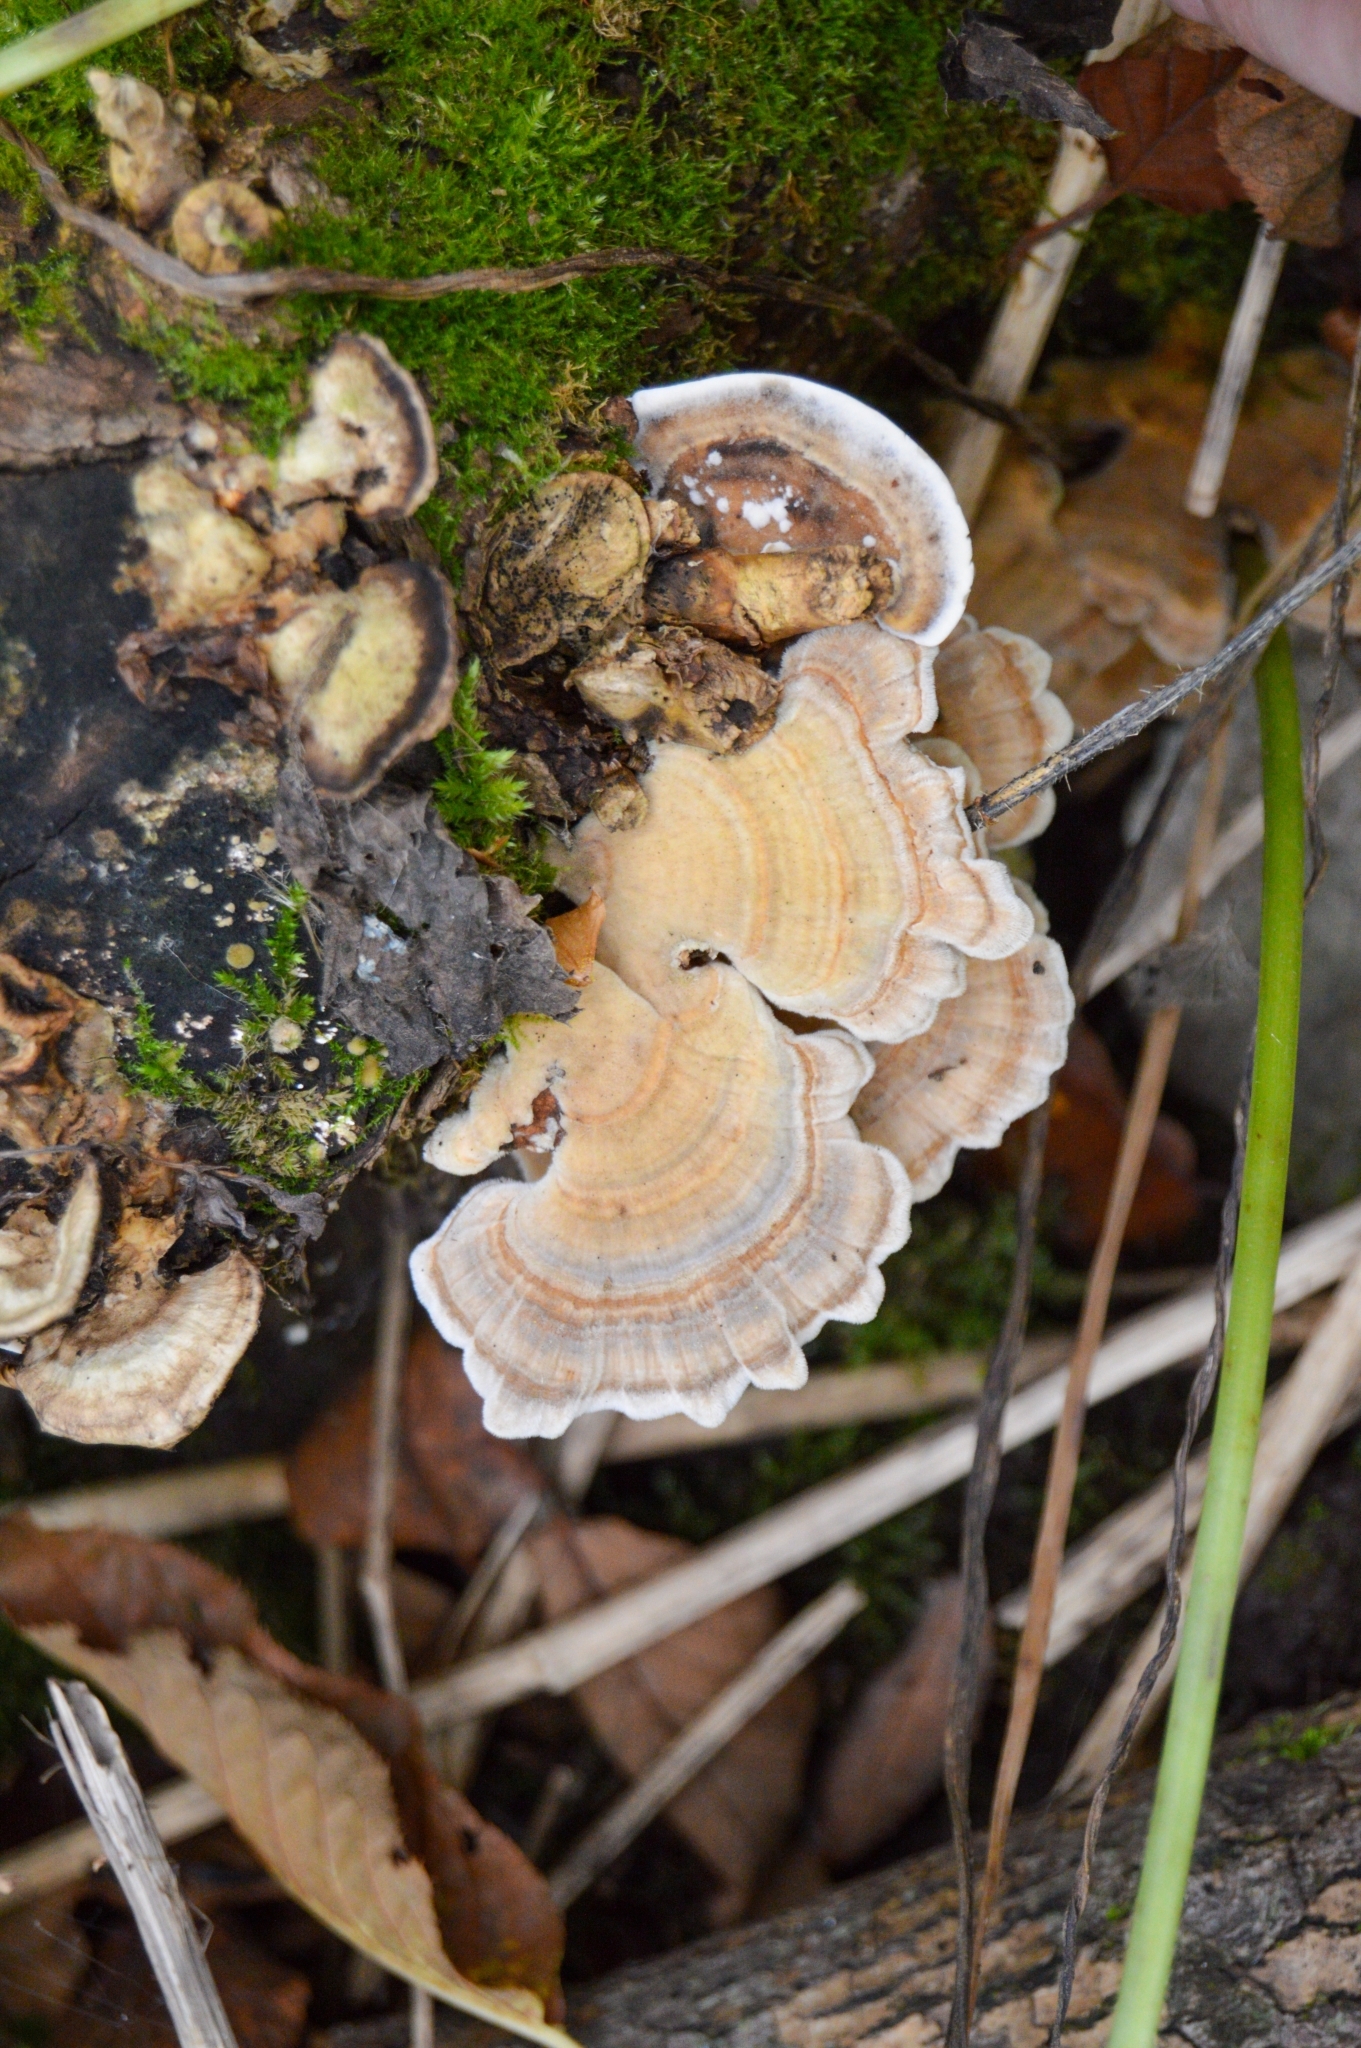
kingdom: Fungi
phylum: Basidiomycota
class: Agaricomycetes
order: Polyporales
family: Polyporaceae
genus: Trametes
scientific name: Trametes versicolor
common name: Turkeytail
